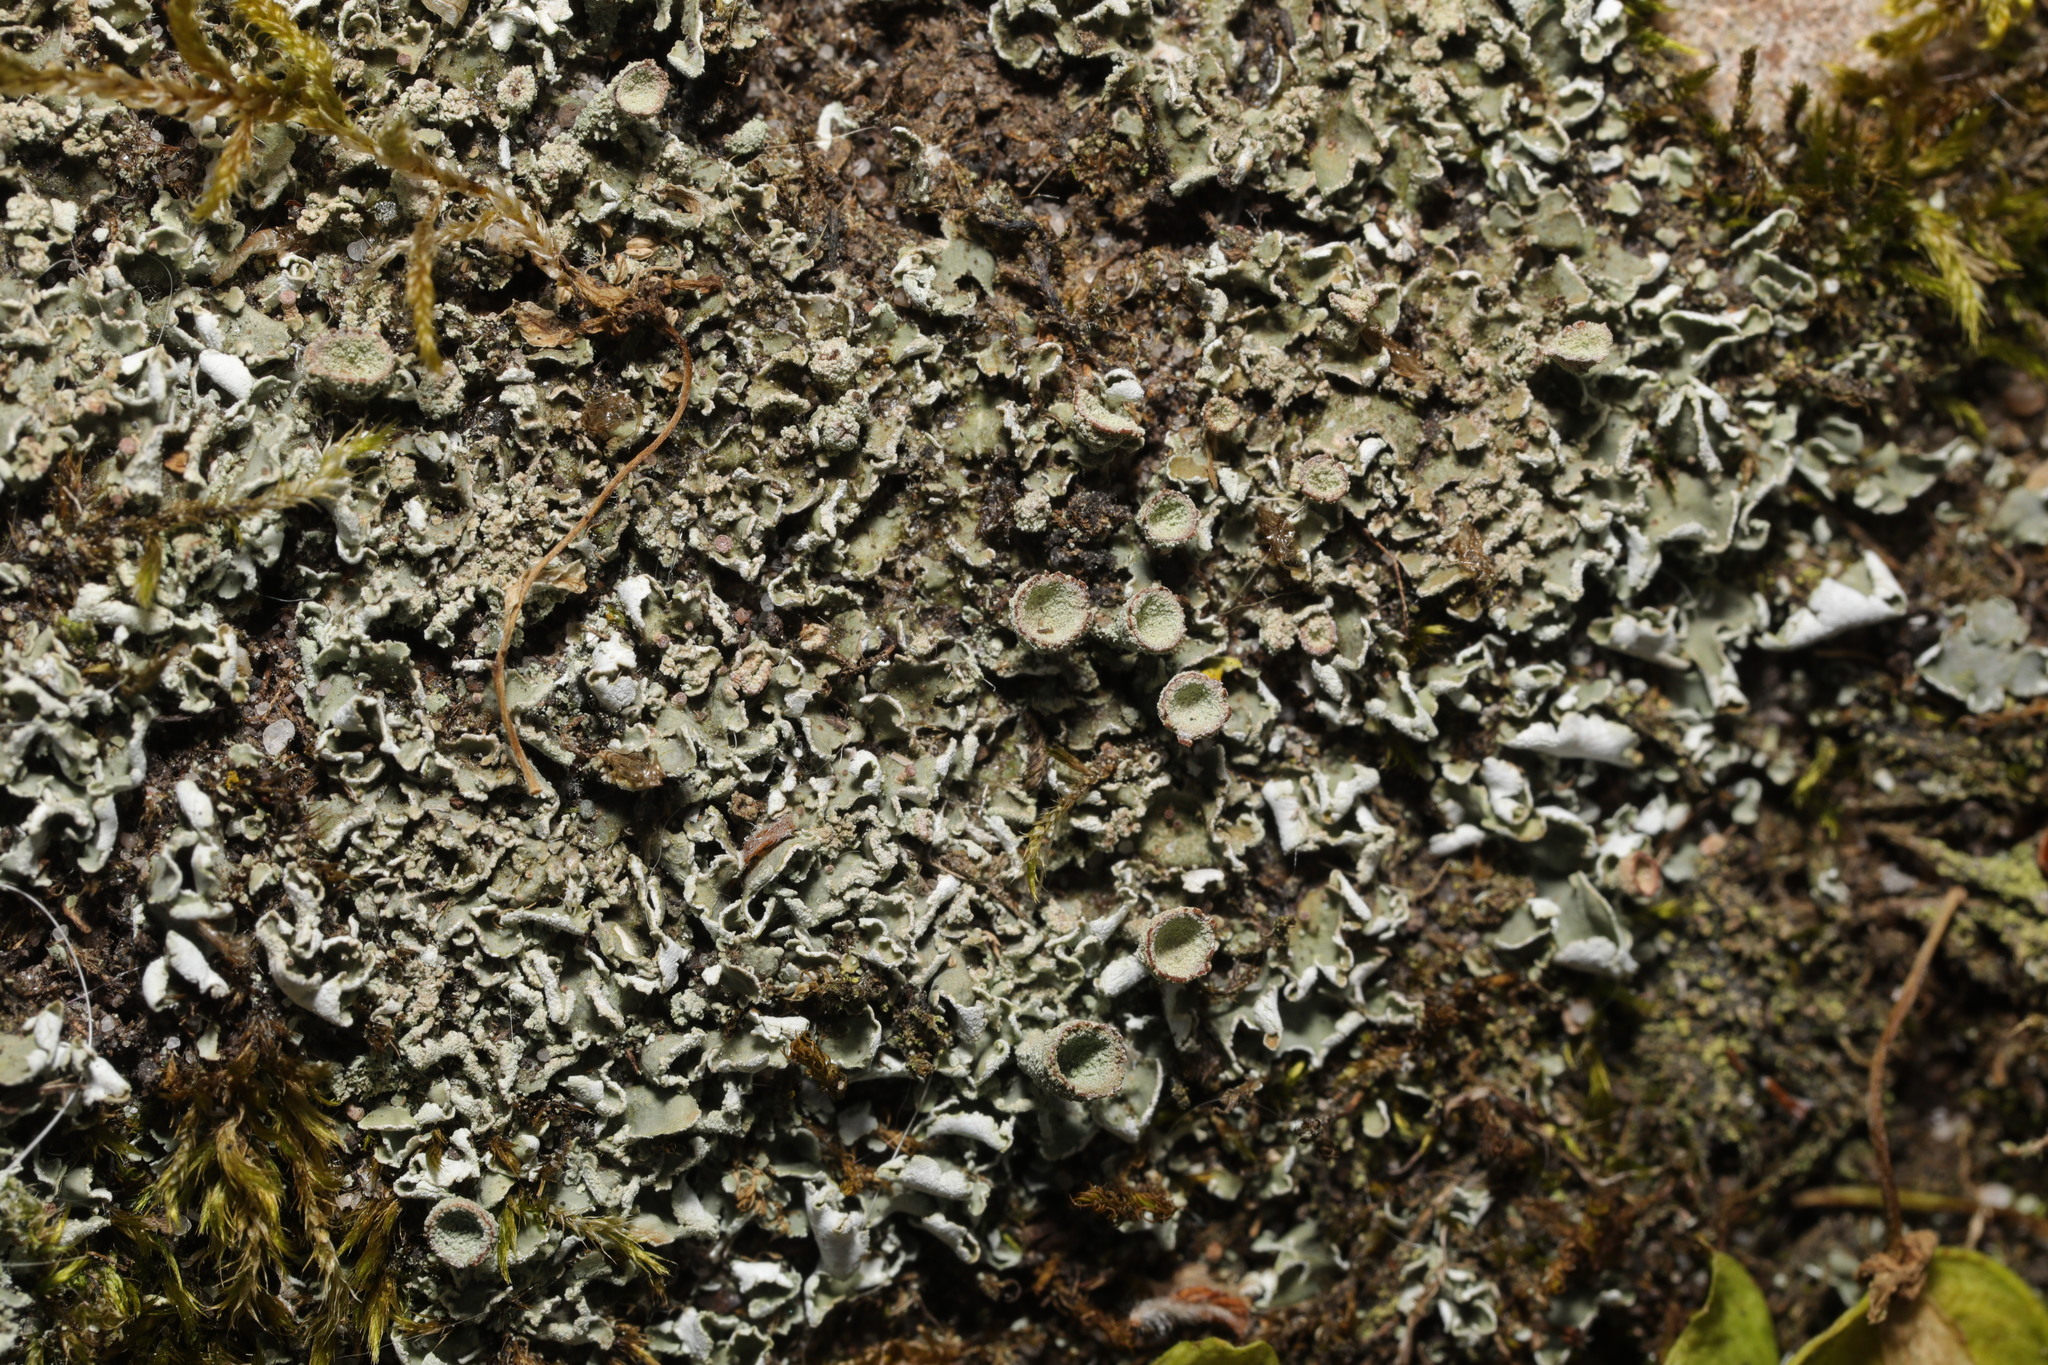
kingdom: Fungi
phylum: Ascomycota
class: Lecanoromycetes
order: Lecanorales
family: Cladoniaceae
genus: Cladonia
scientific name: Cladonia
